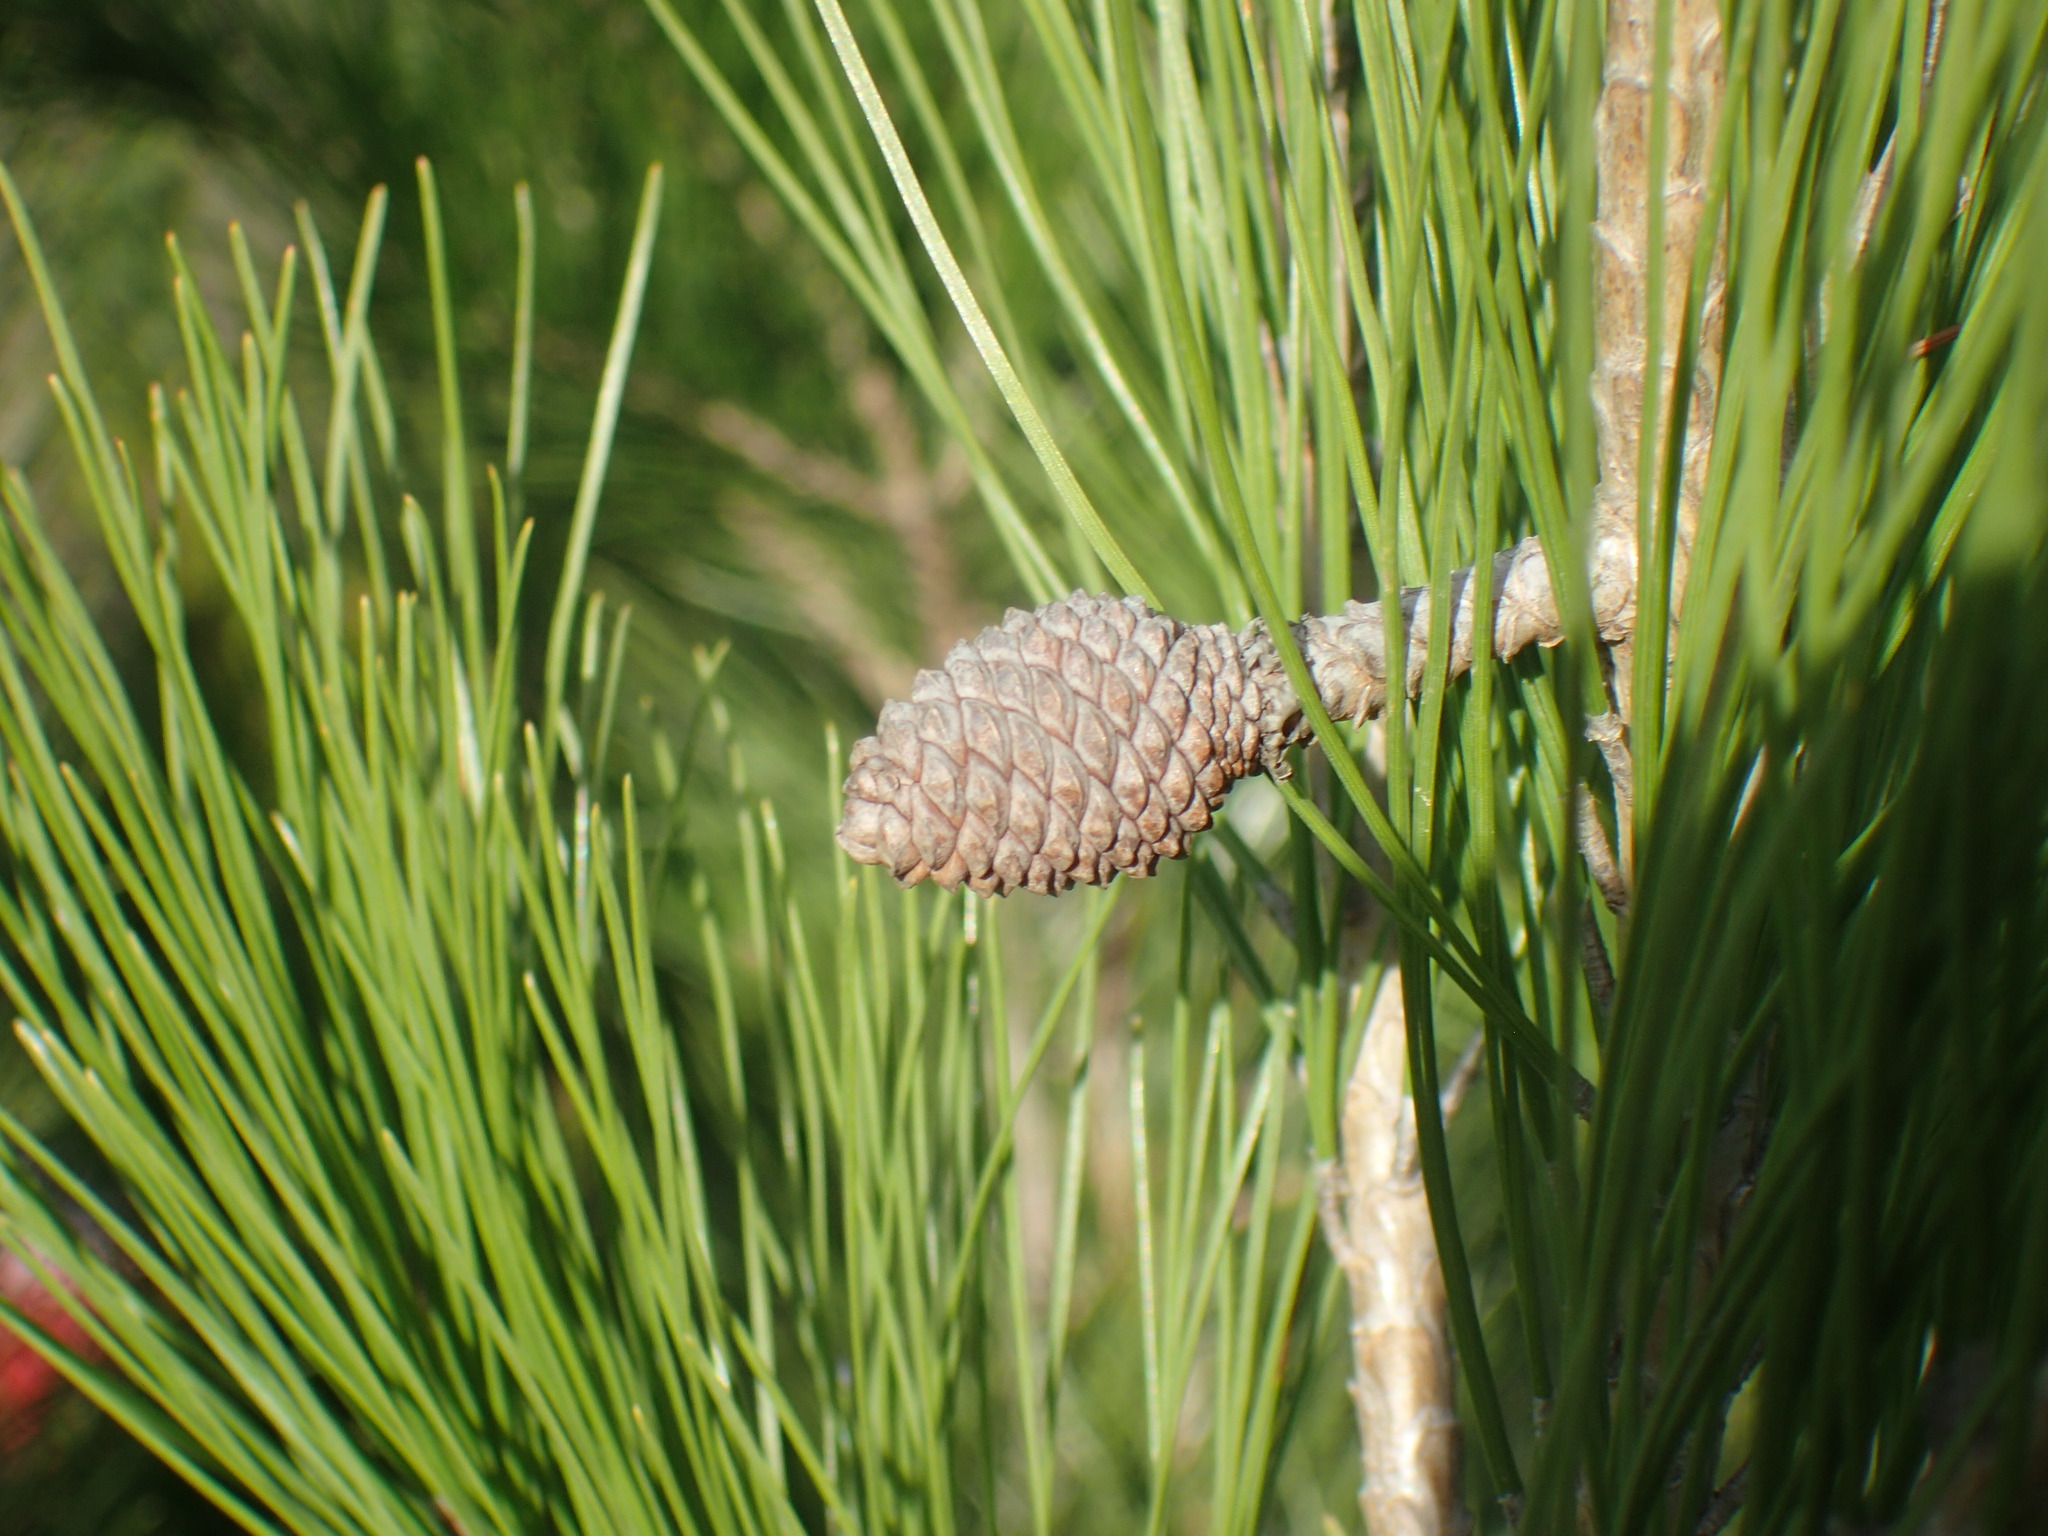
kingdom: Plantae
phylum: Tracheophyta
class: Pinopsida
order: Pinales
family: Pinaceae
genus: Pinus
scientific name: Pinus radiata
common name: Monterey pine
